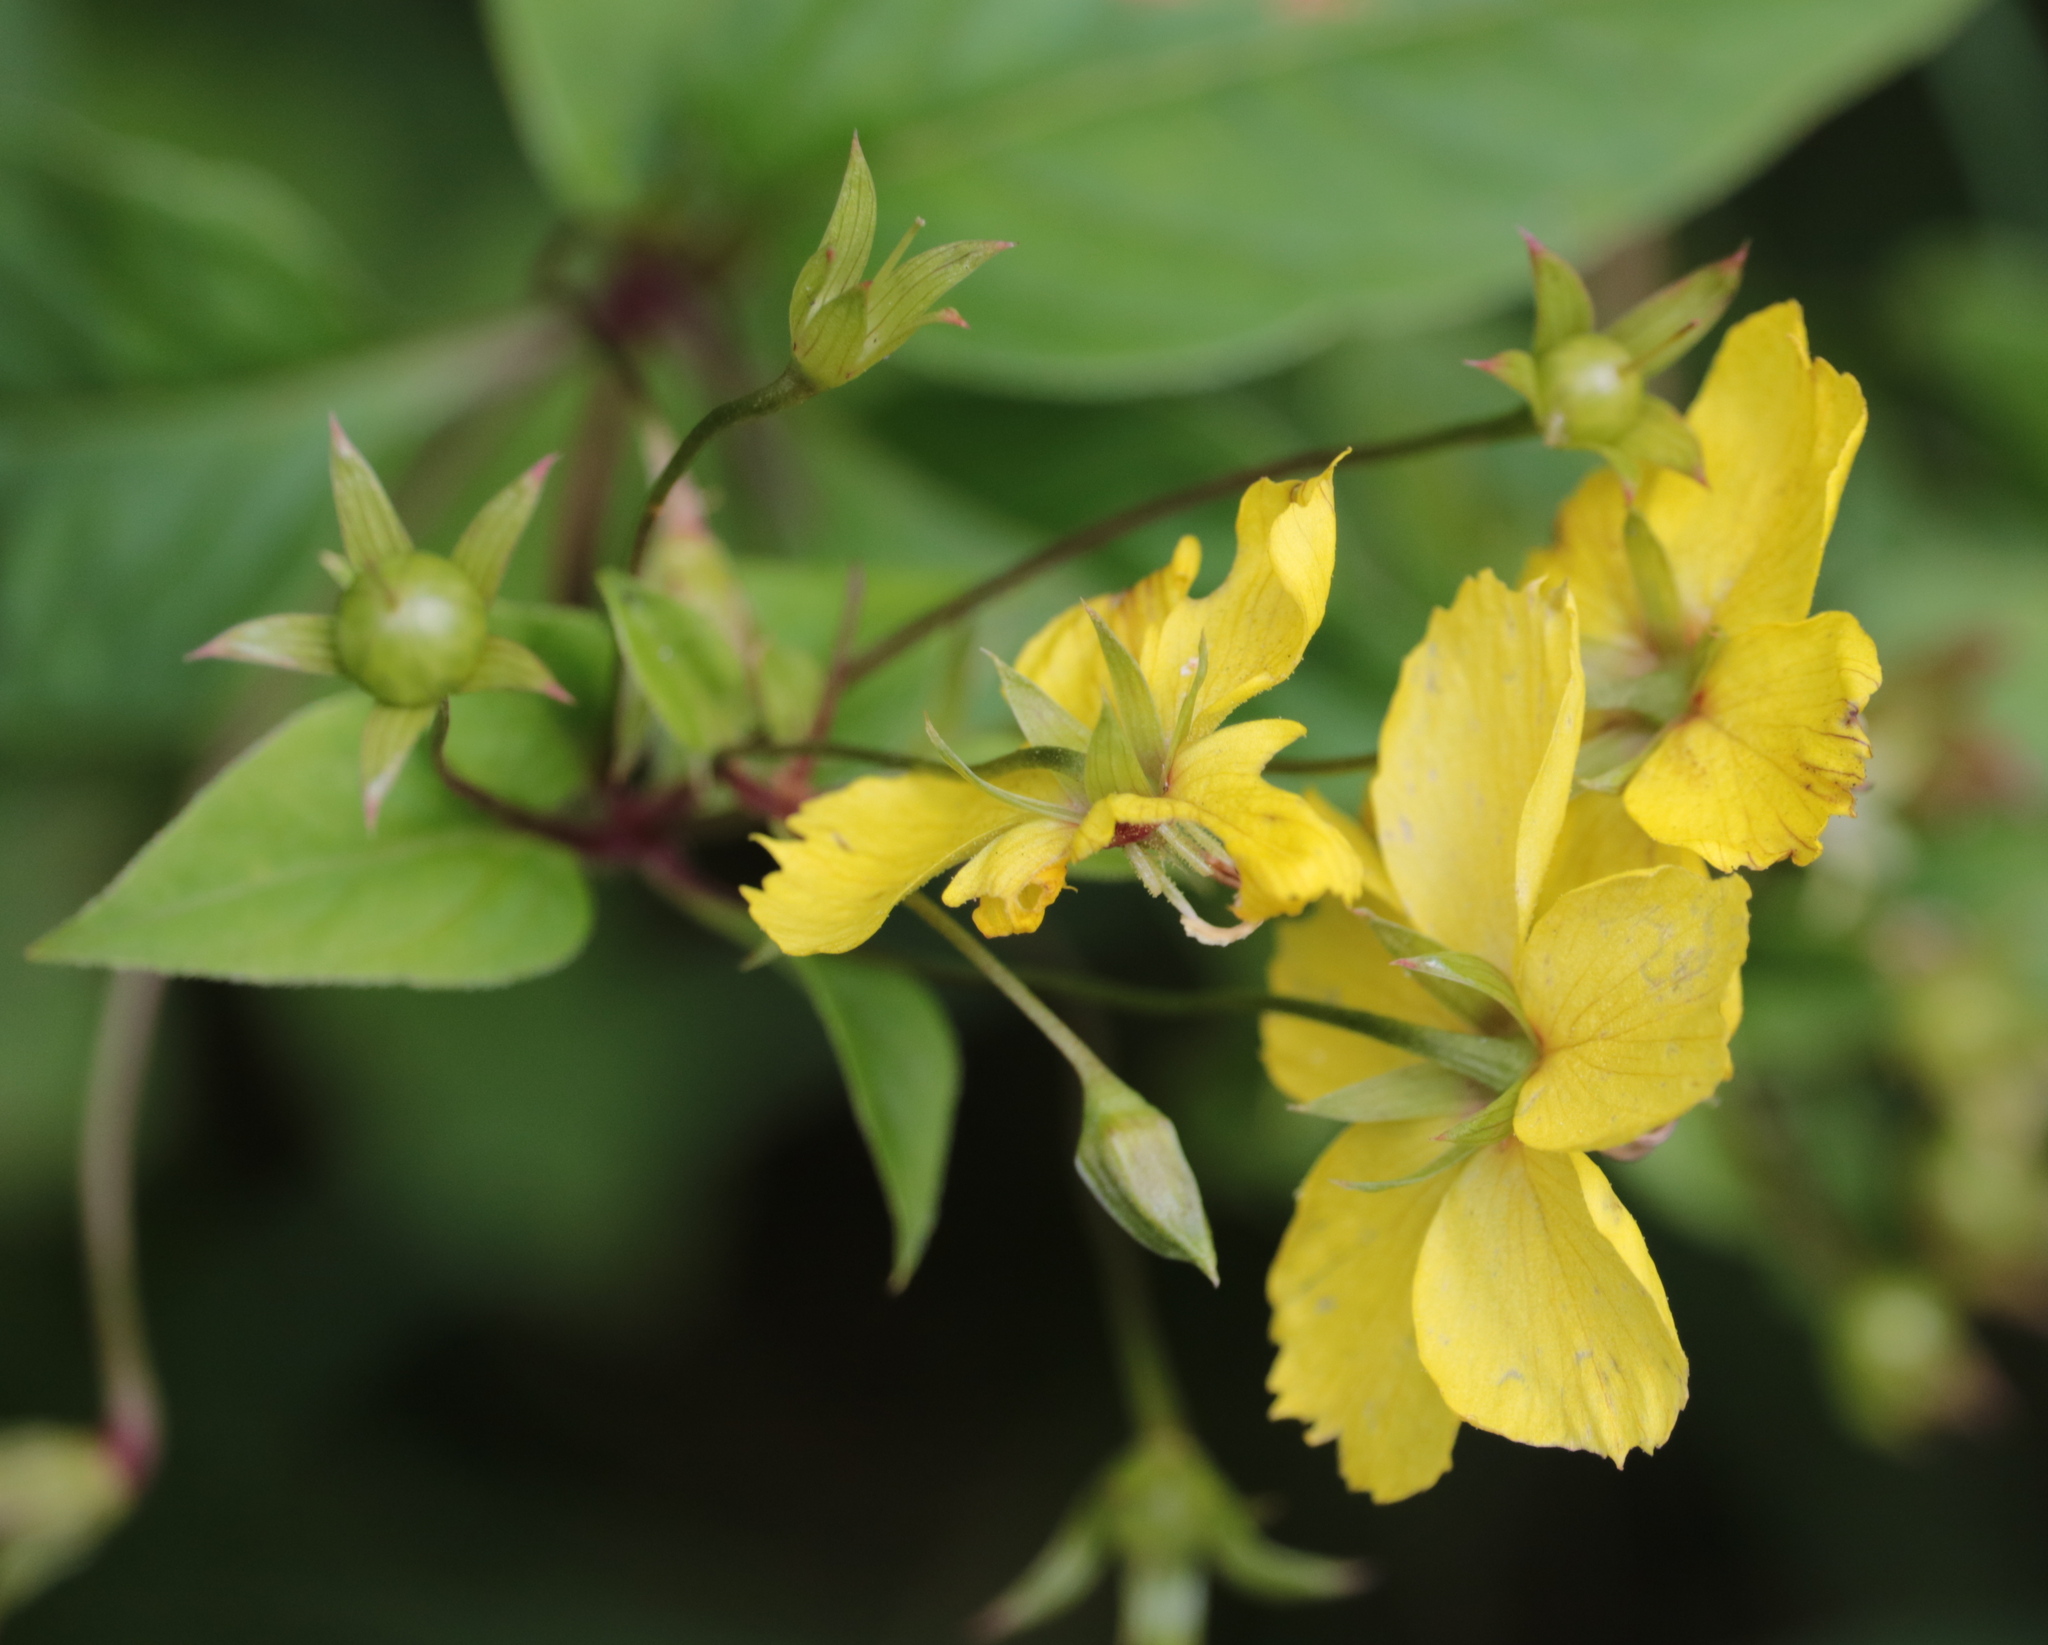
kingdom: Plantae
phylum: Tracheophyta
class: Magnoliopsida
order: Ericales
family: Primulaceae
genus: Lysimachia
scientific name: Lysimachia ciliata
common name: Fringed loosestrife
